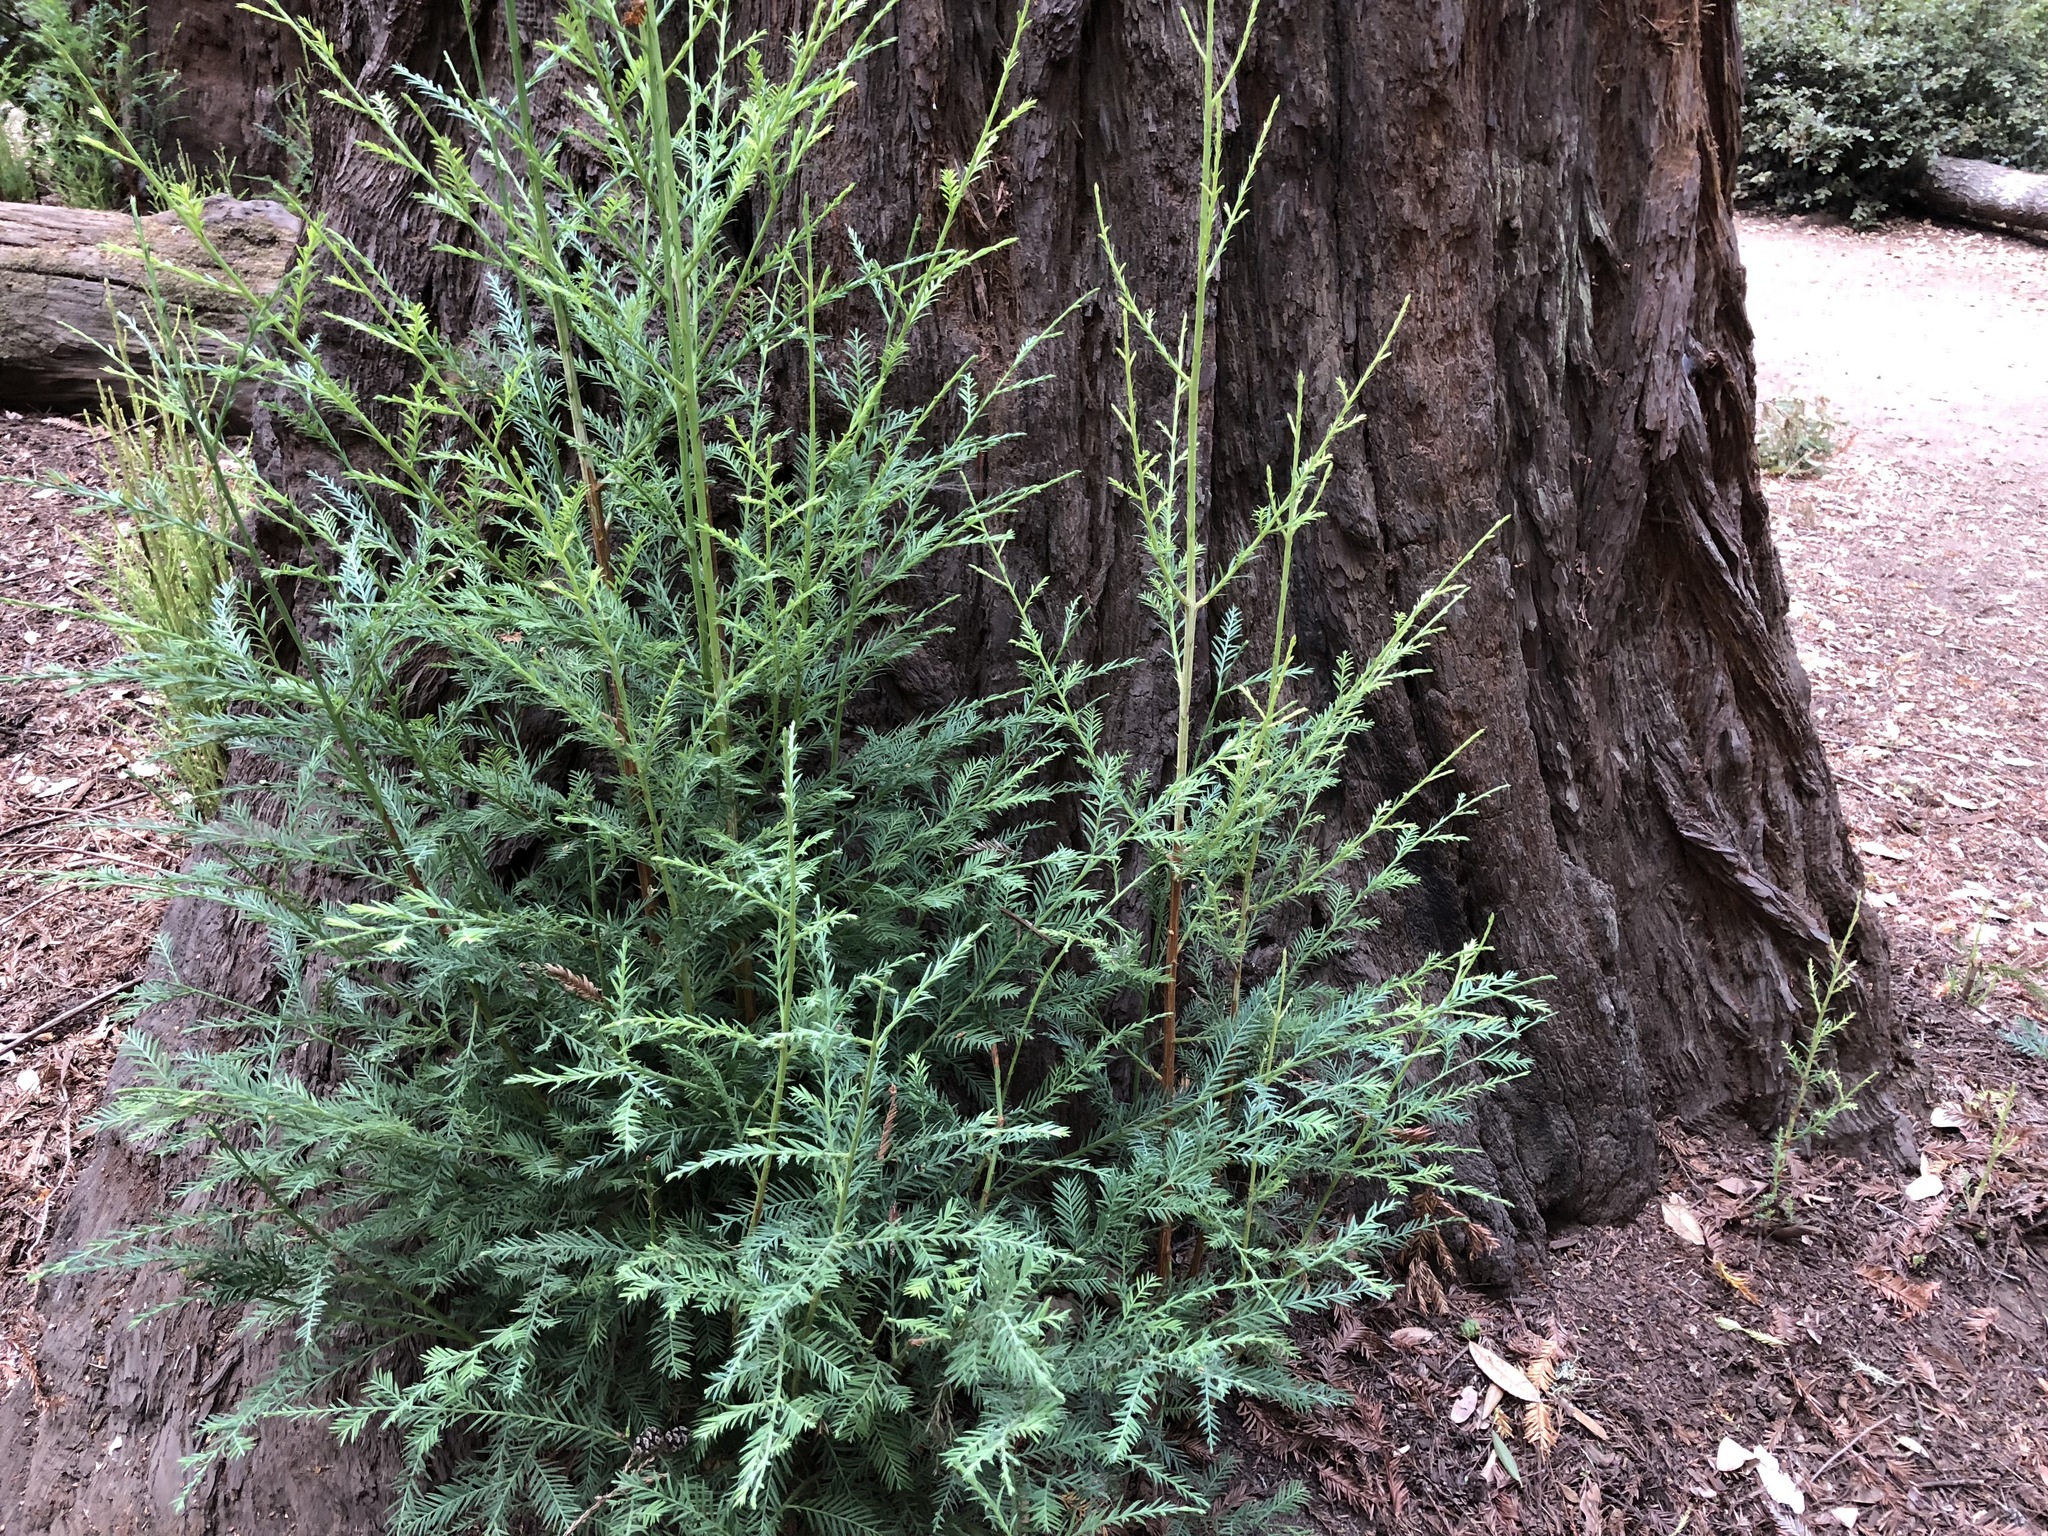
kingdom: Plantae
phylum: Tracheophyta
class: Pinopsida
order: Pinales
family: Cupressaceae
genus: Sequoia
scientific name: Sequoia sempervirens
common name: Coast redwood
